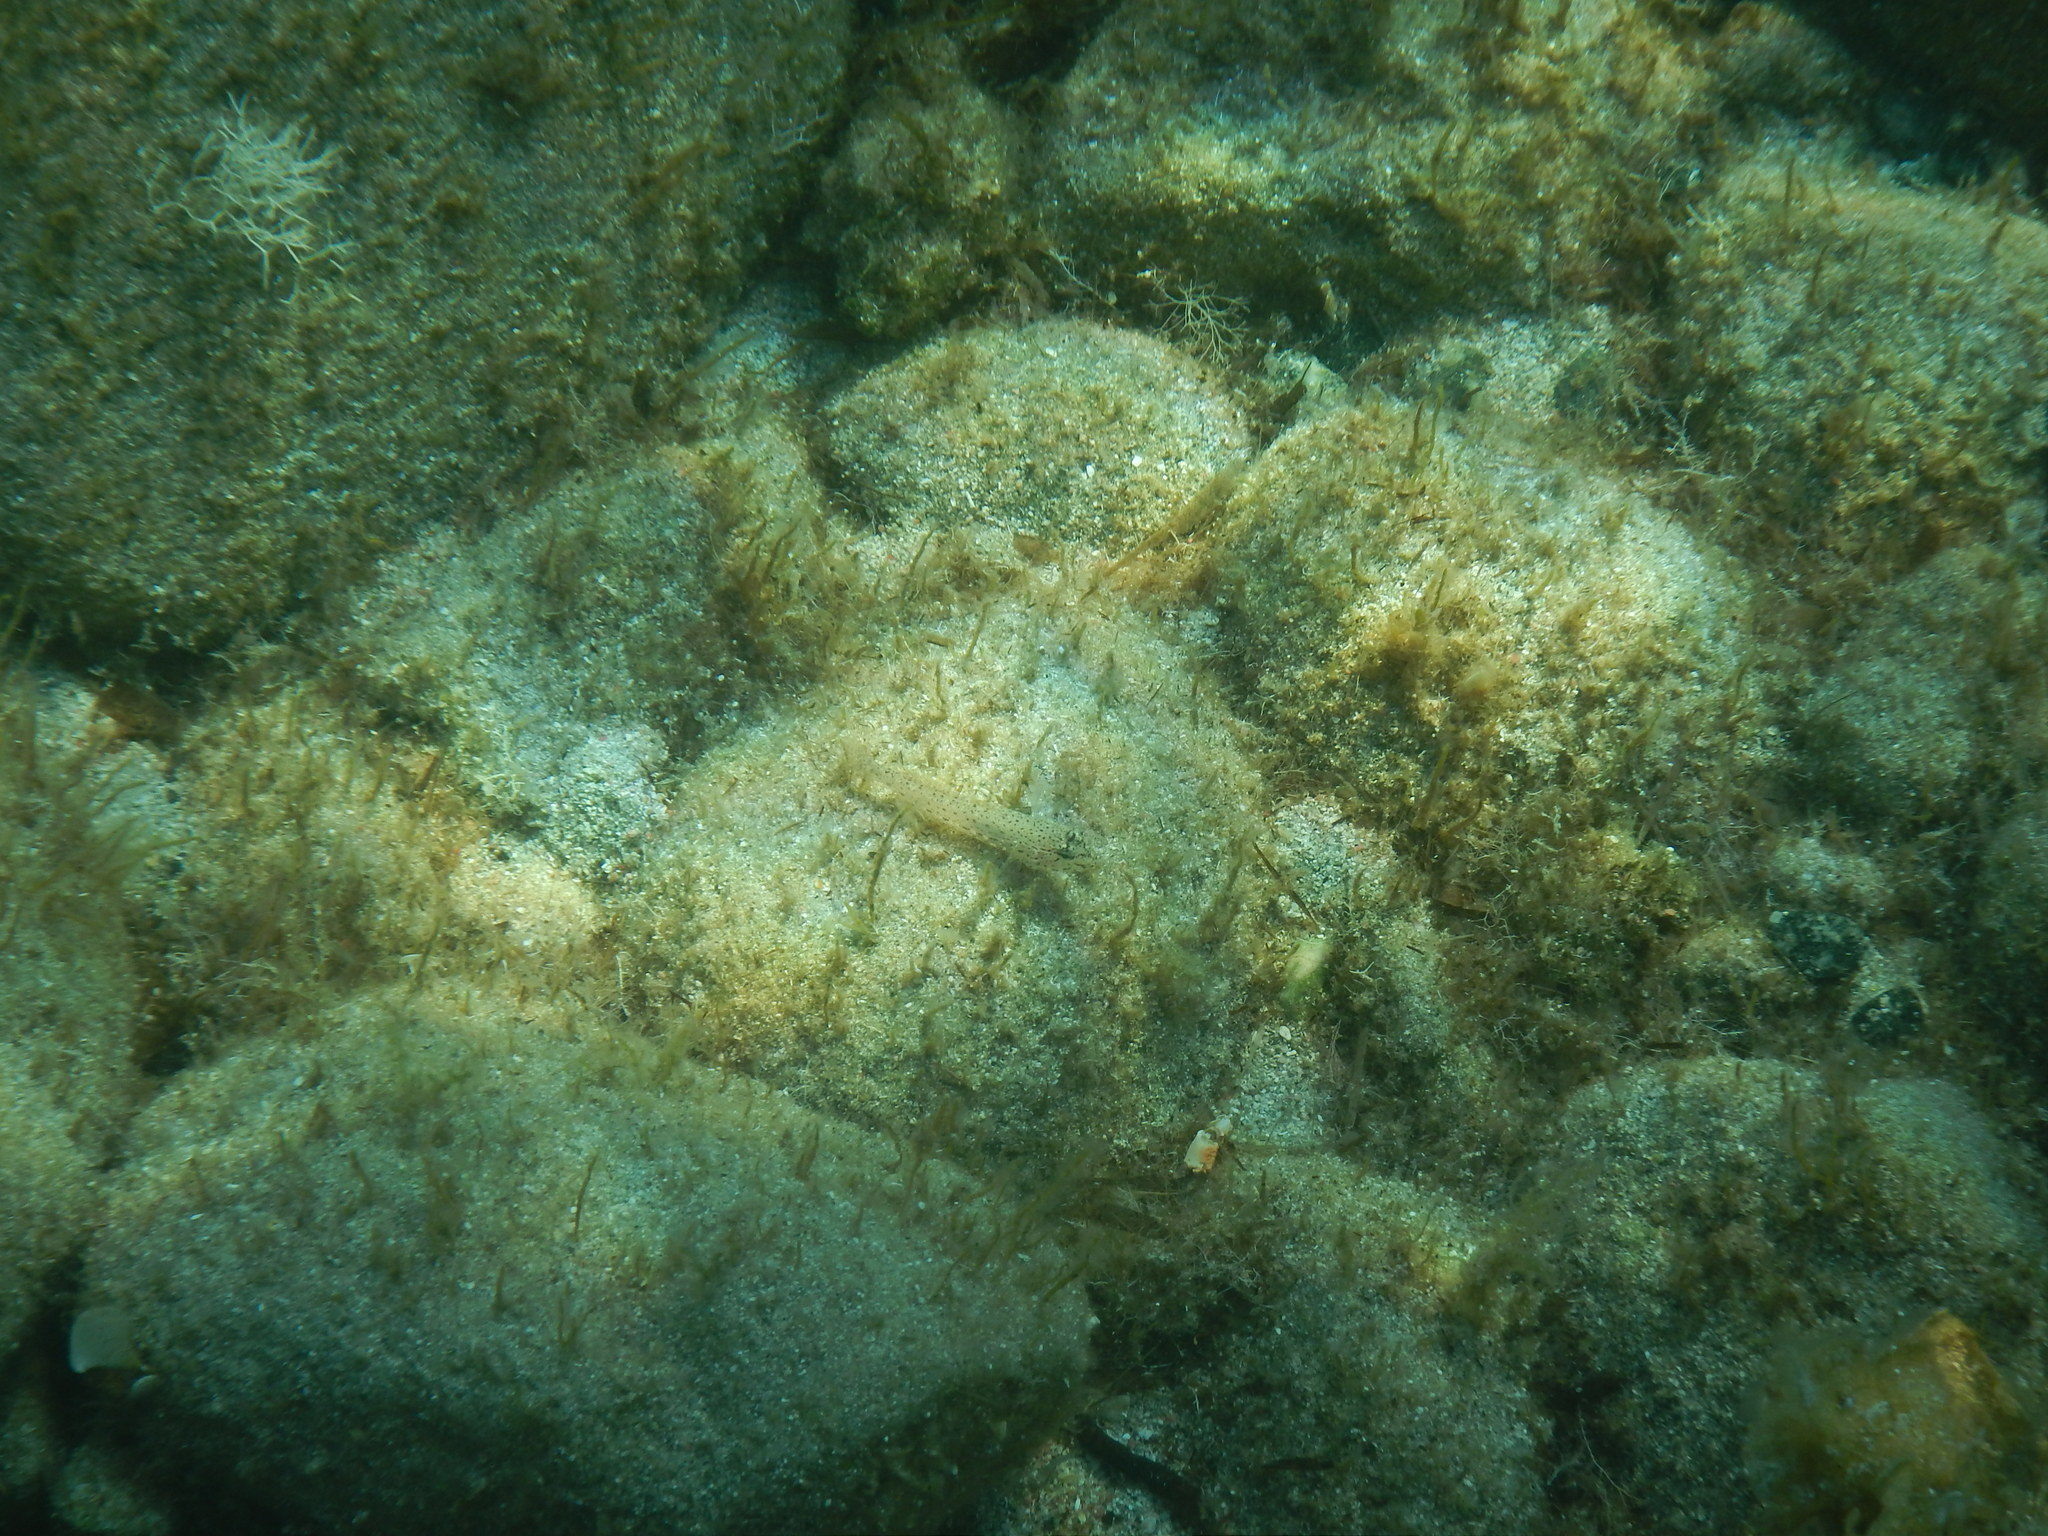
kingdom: Animalia
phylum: Chordata
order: Perciformes
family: Gobiidae
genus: Gobius
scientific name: Gobius incognitus
